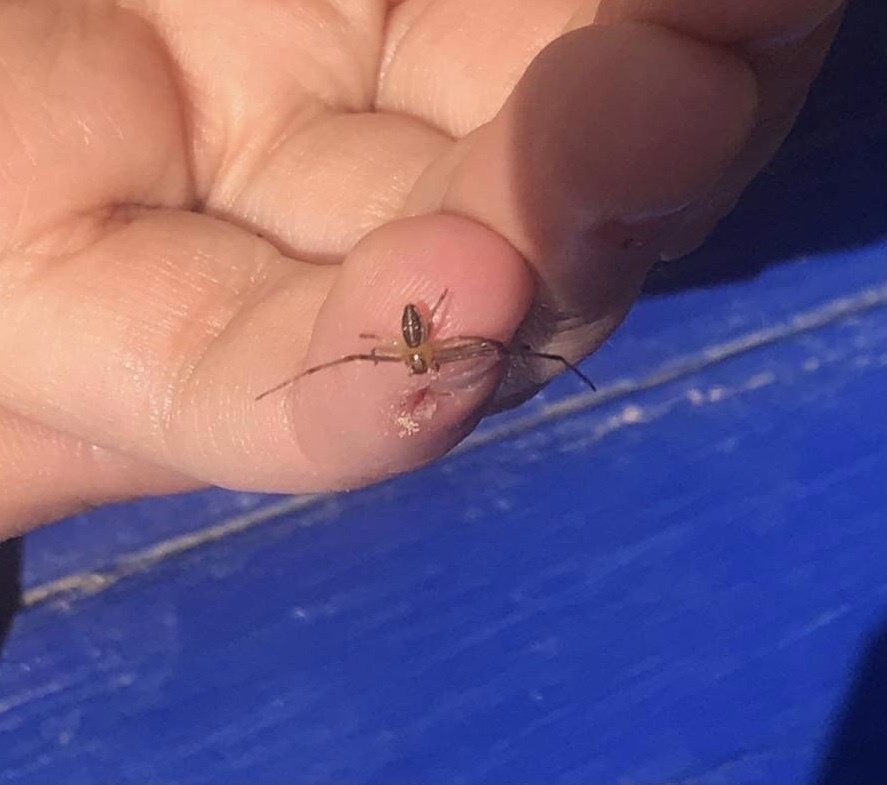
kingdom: Animalia
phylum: Arthropoda
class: Arachnida
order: Araneae
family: Thomisidae
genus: Diaea
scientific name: Diaea dorsata
